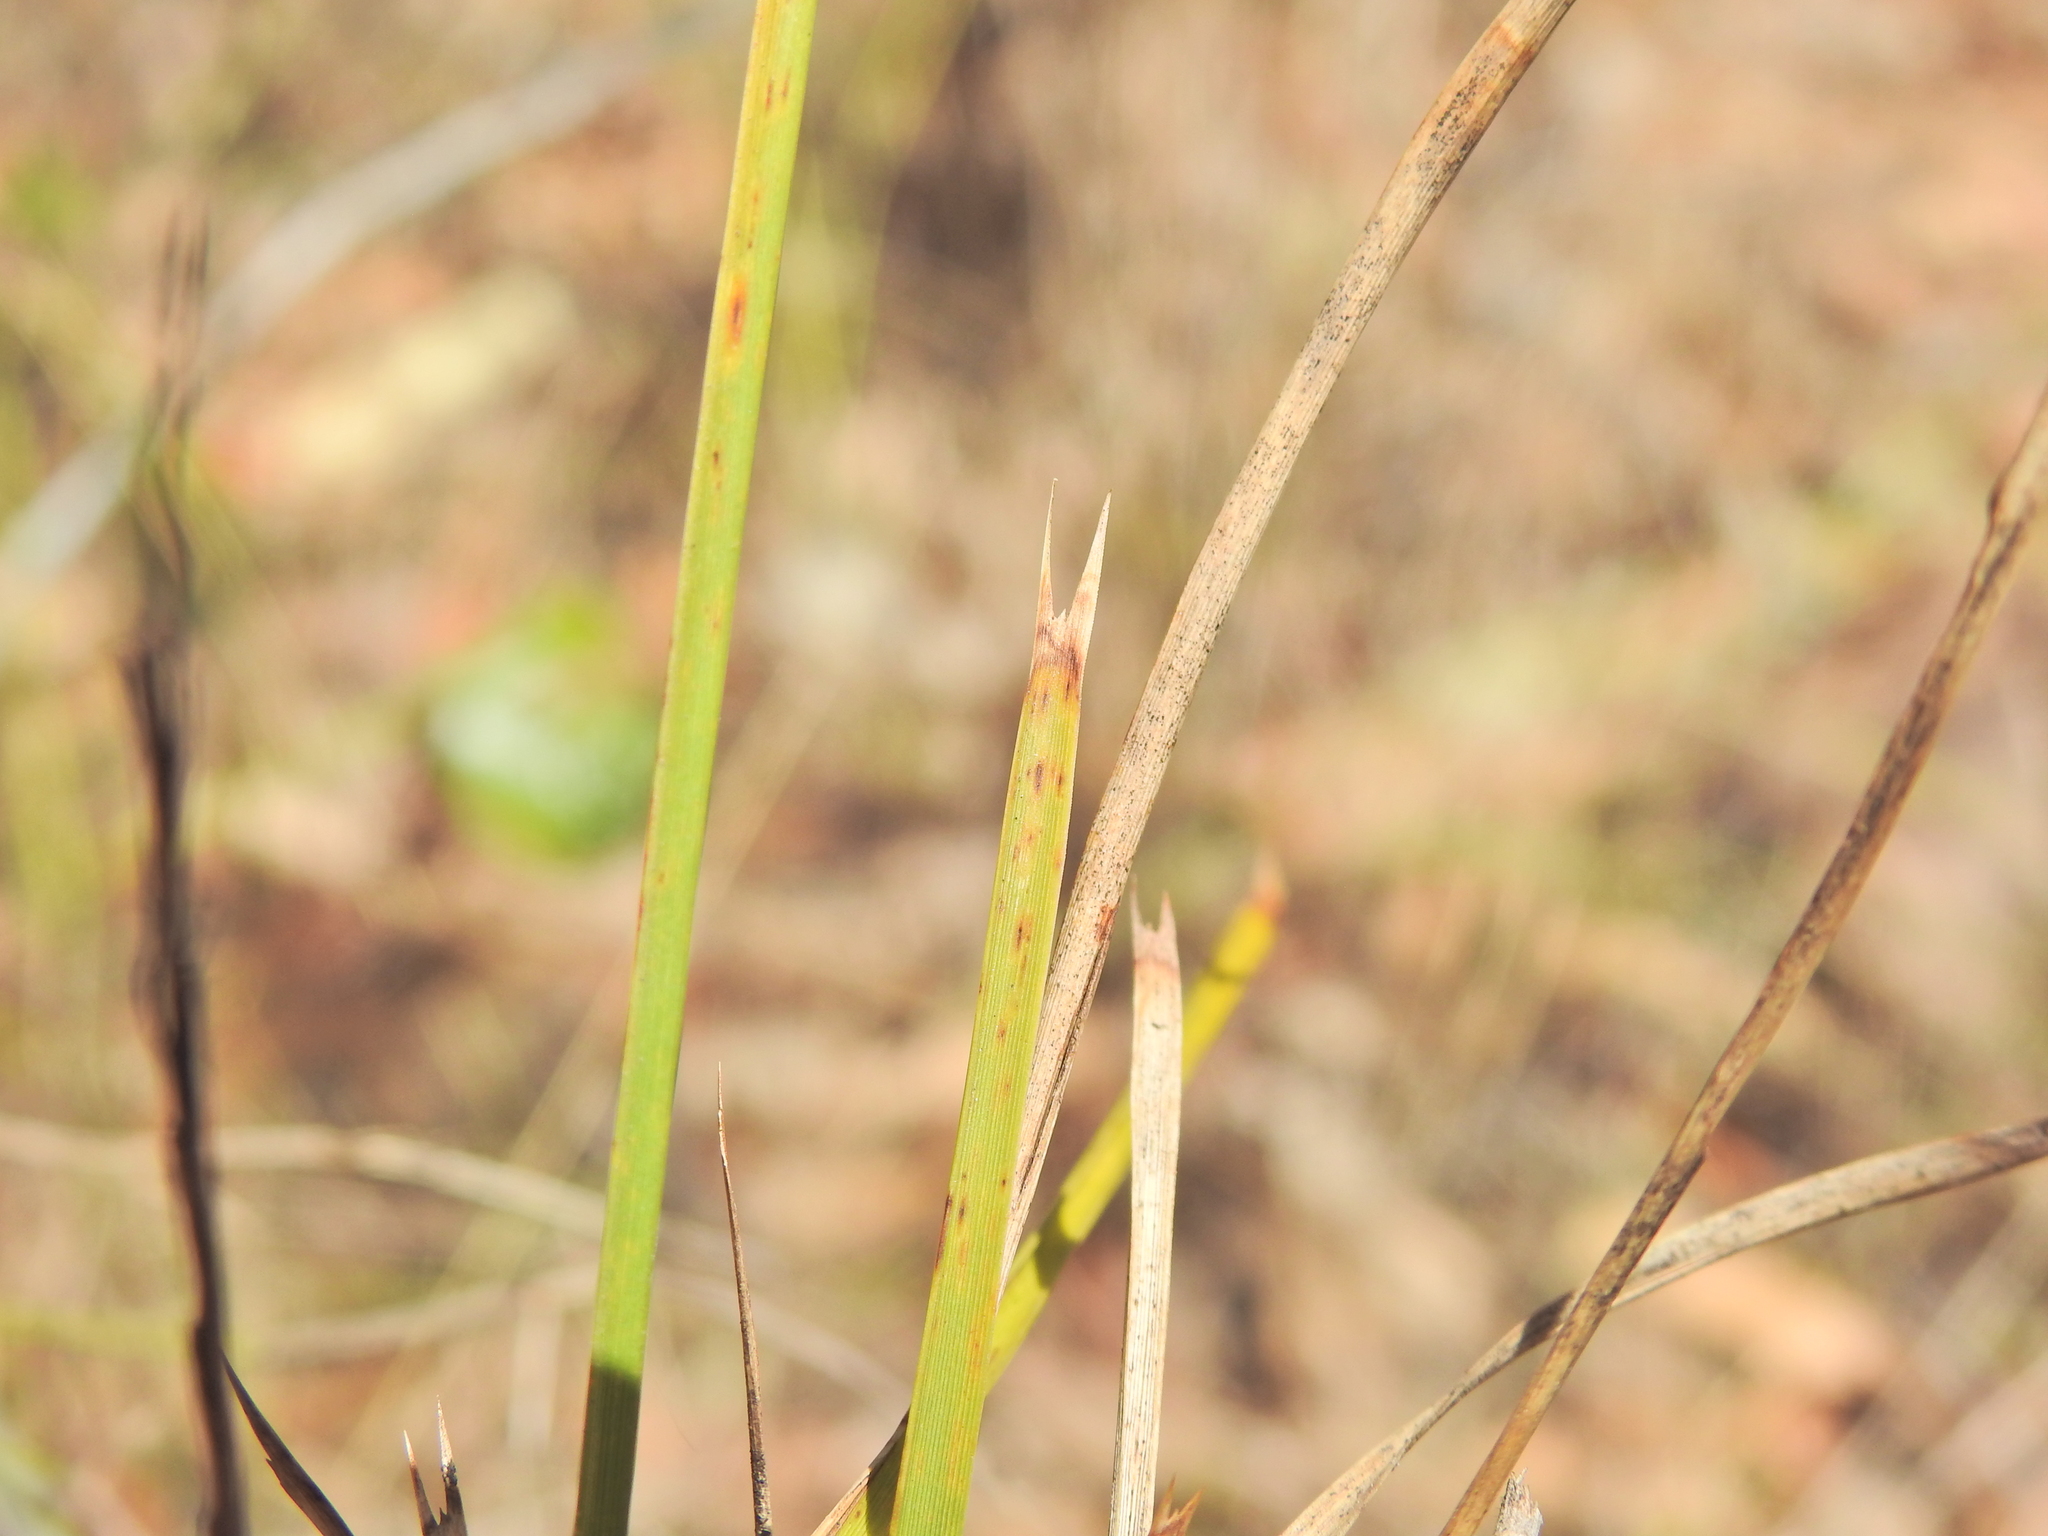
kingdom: Plantae
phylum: Tracheophyta
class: Liliopsida
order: Asparagales
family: Asparagaceae
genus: Lomandra
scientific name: Lomandra confertifolia
